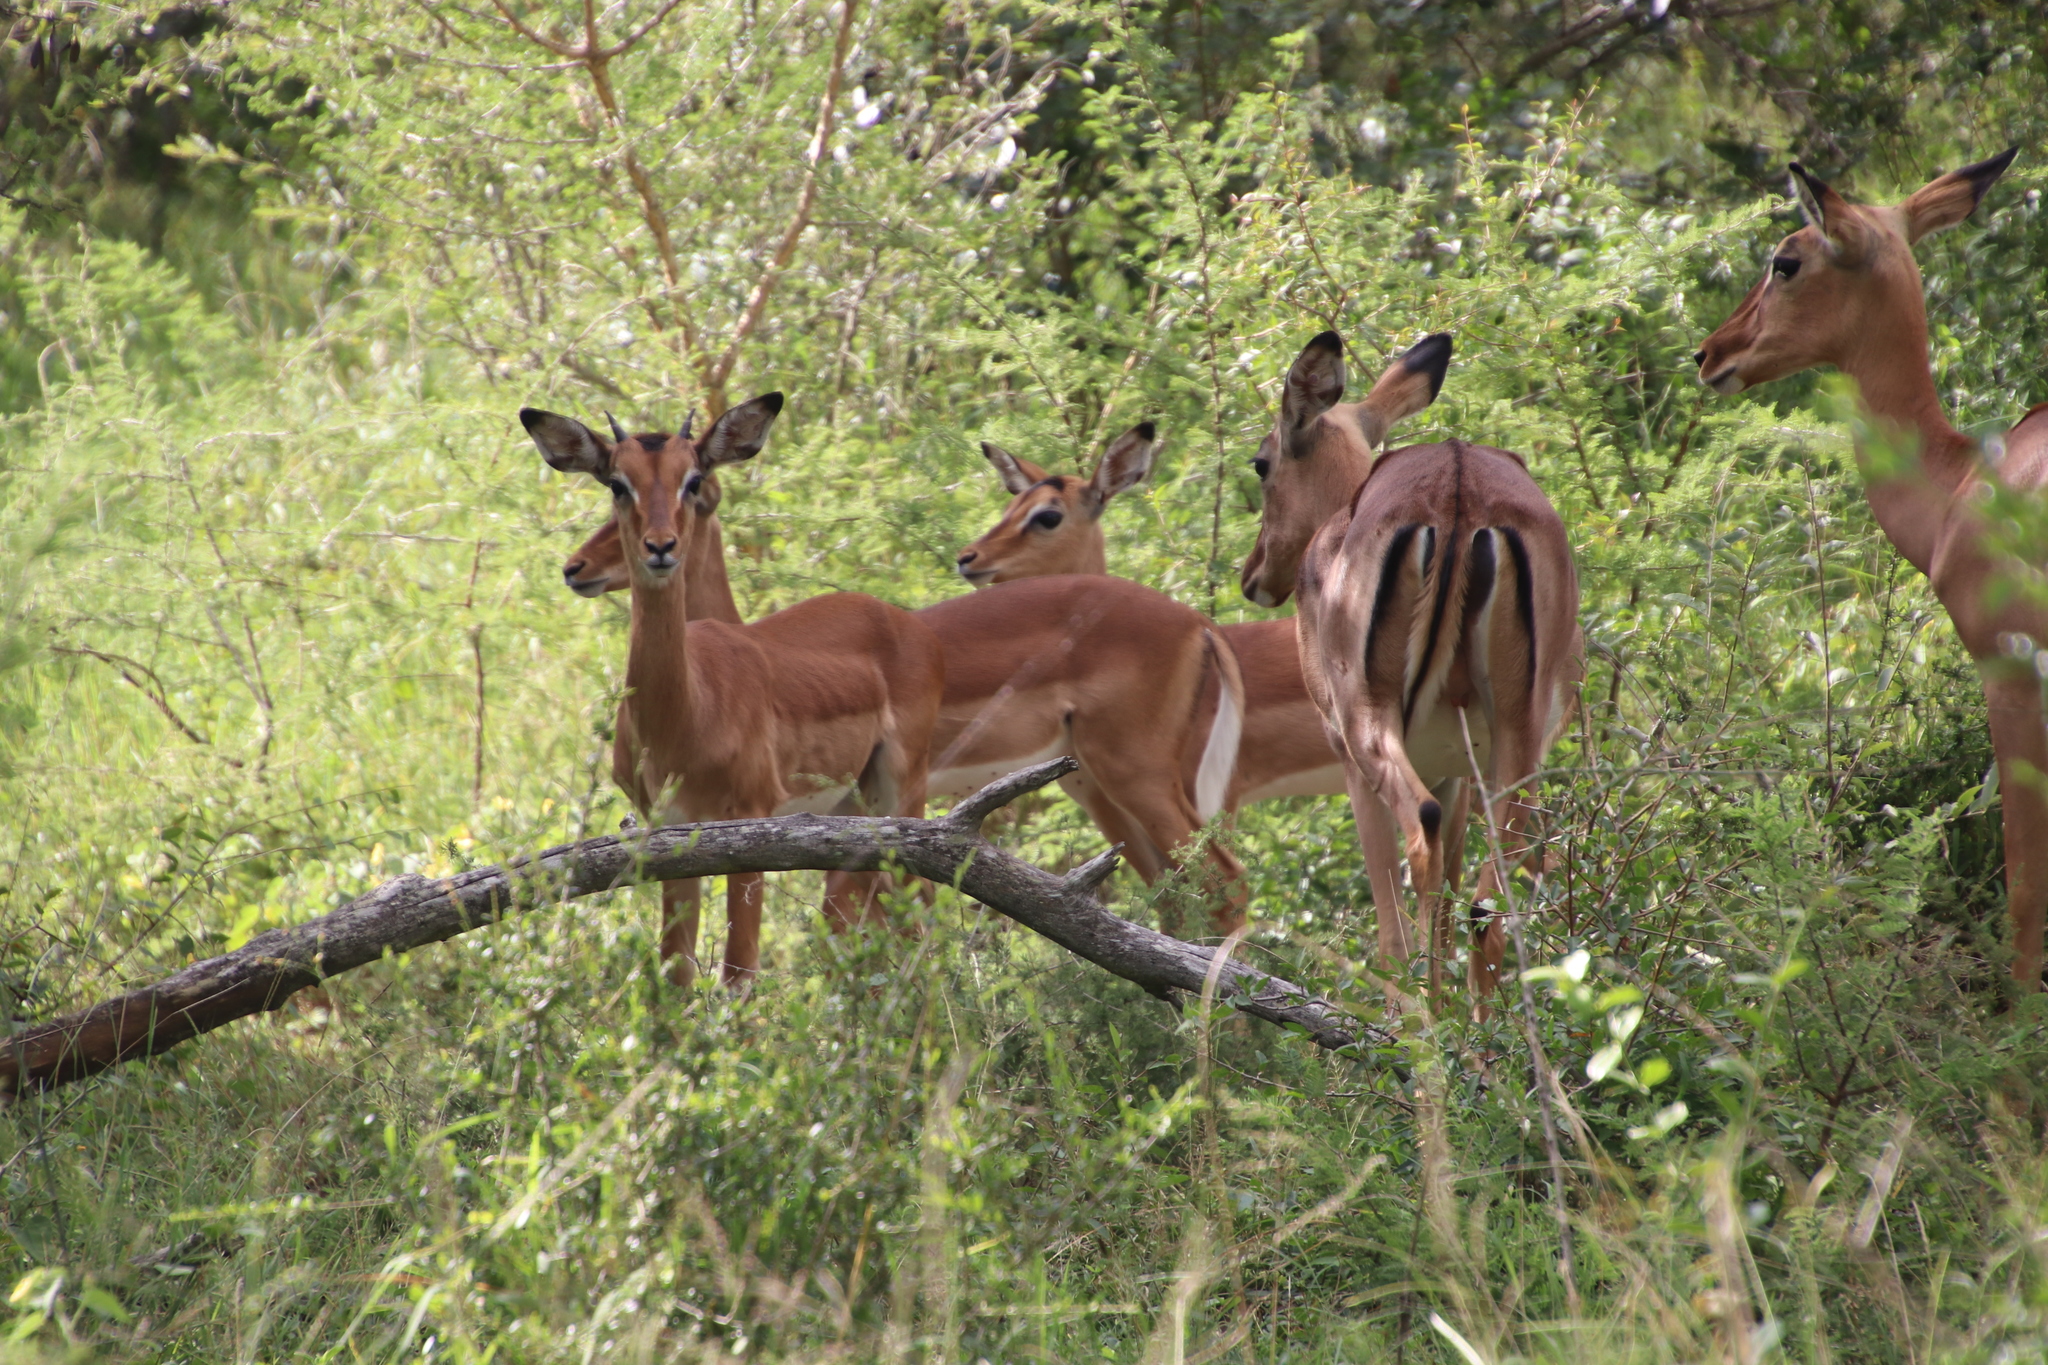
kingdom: Animalia
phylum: Chordata
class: Mammalia
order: Artiodactyla
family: Bovidae
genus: Aepyceros
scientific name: Aepyceros melampus
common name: Impala
